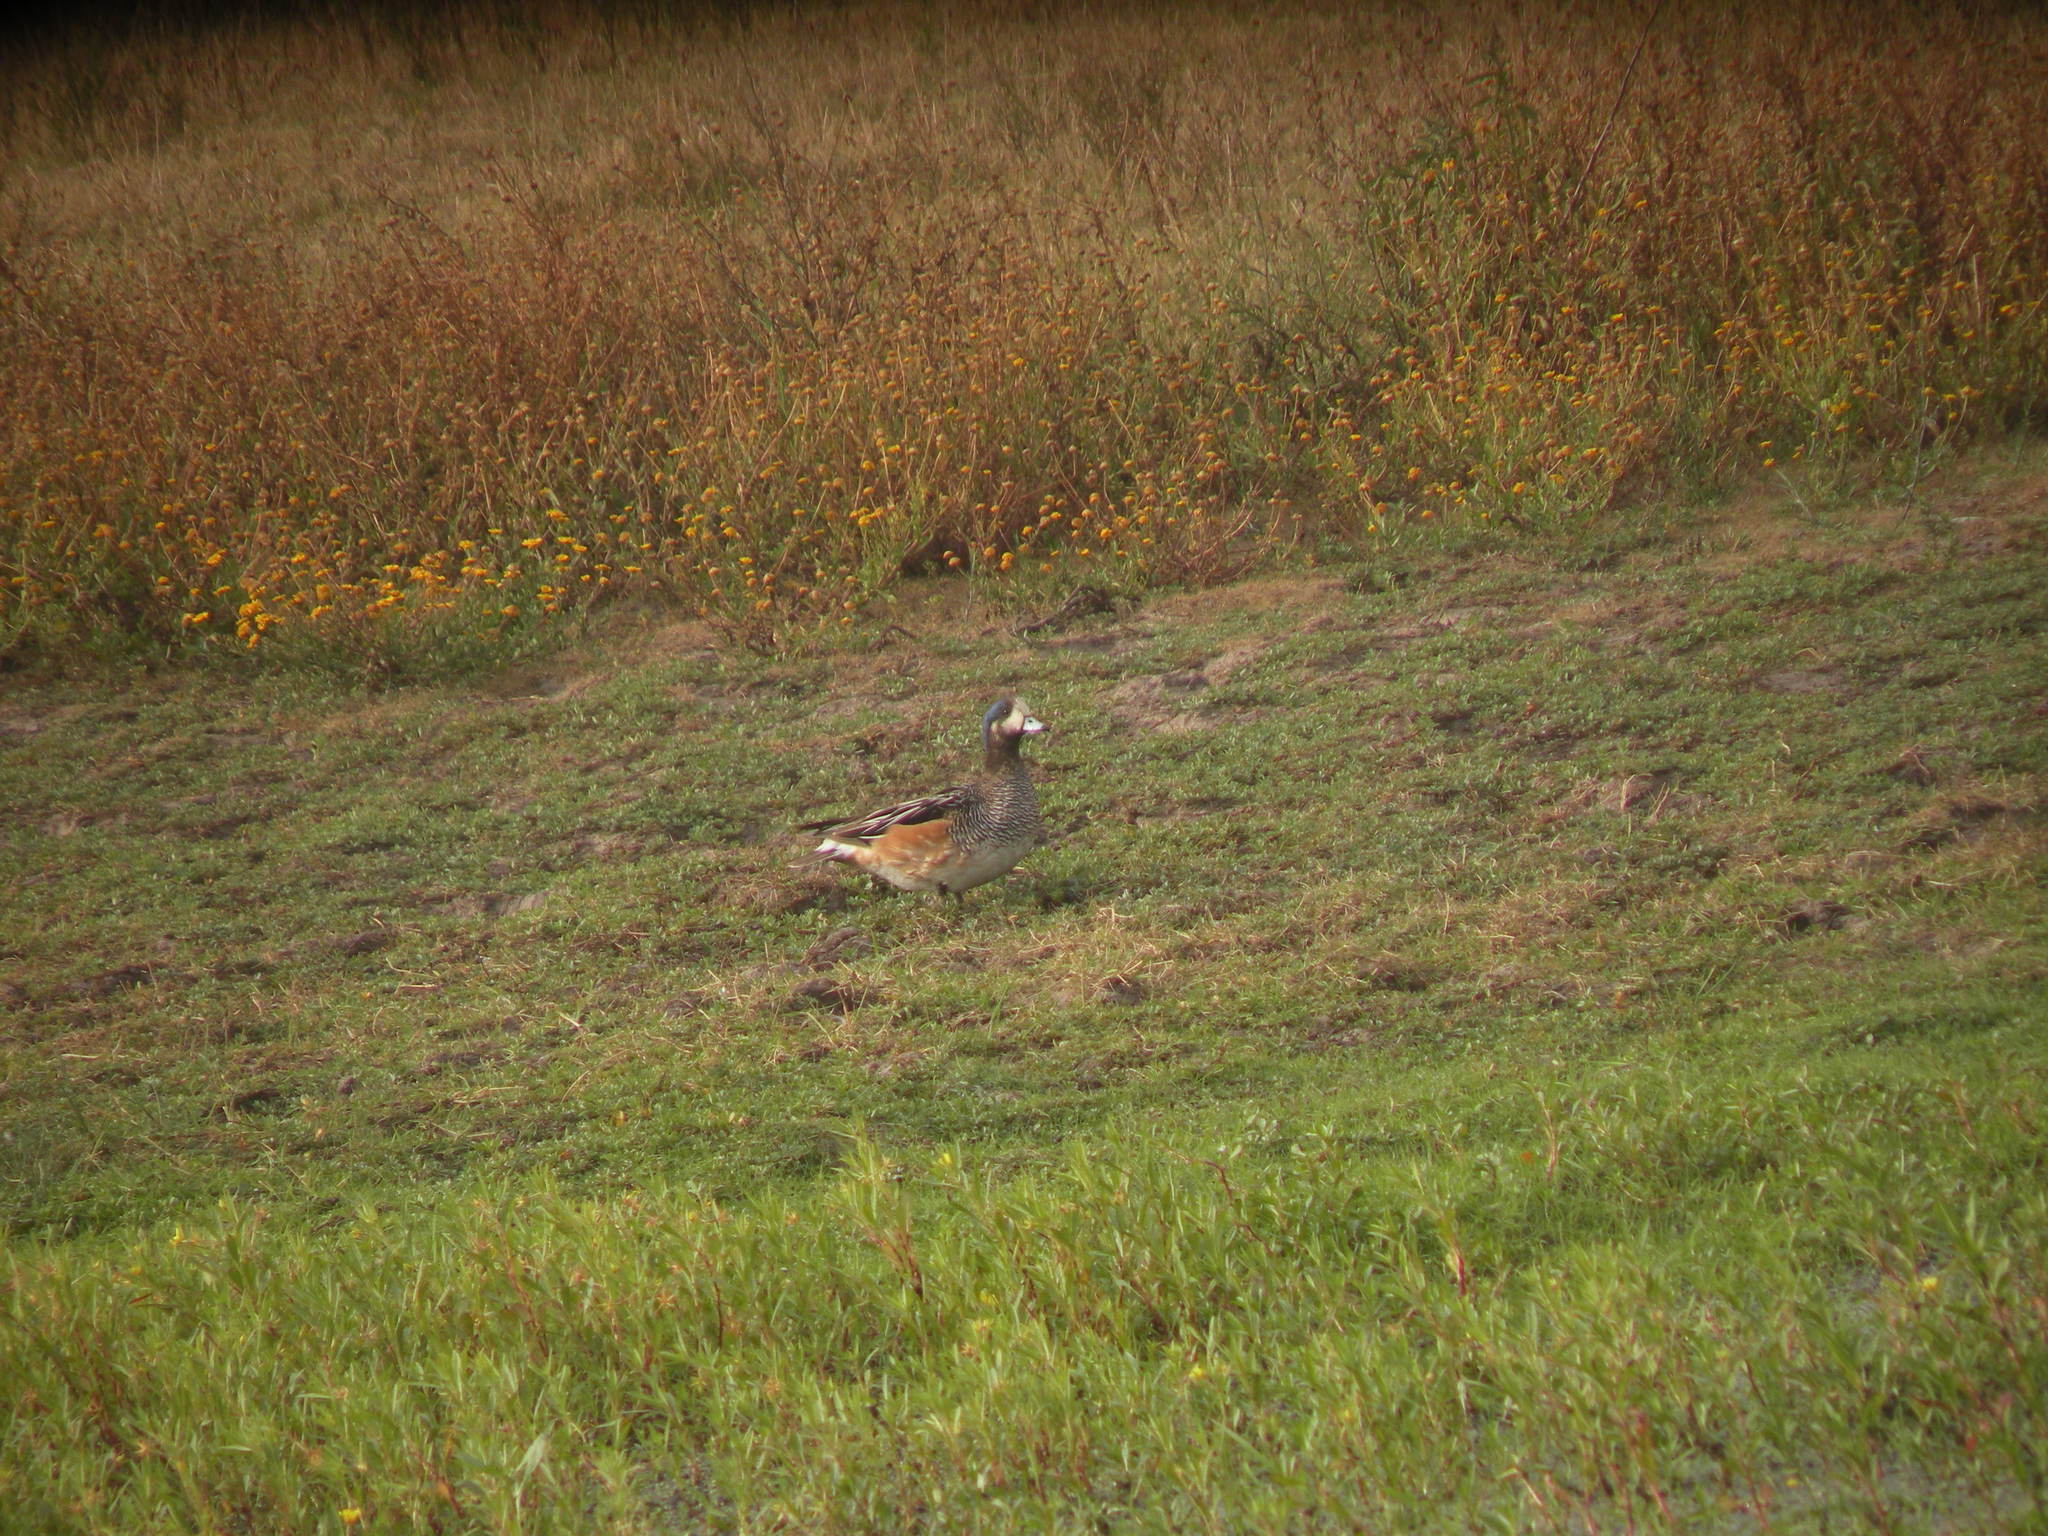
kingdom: Animalia
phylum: Chordata
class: Aves
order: Anseriformes
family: Anatidae
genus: Mareca
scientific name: Mareca sibilatrix
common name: Chiloe wigeon
